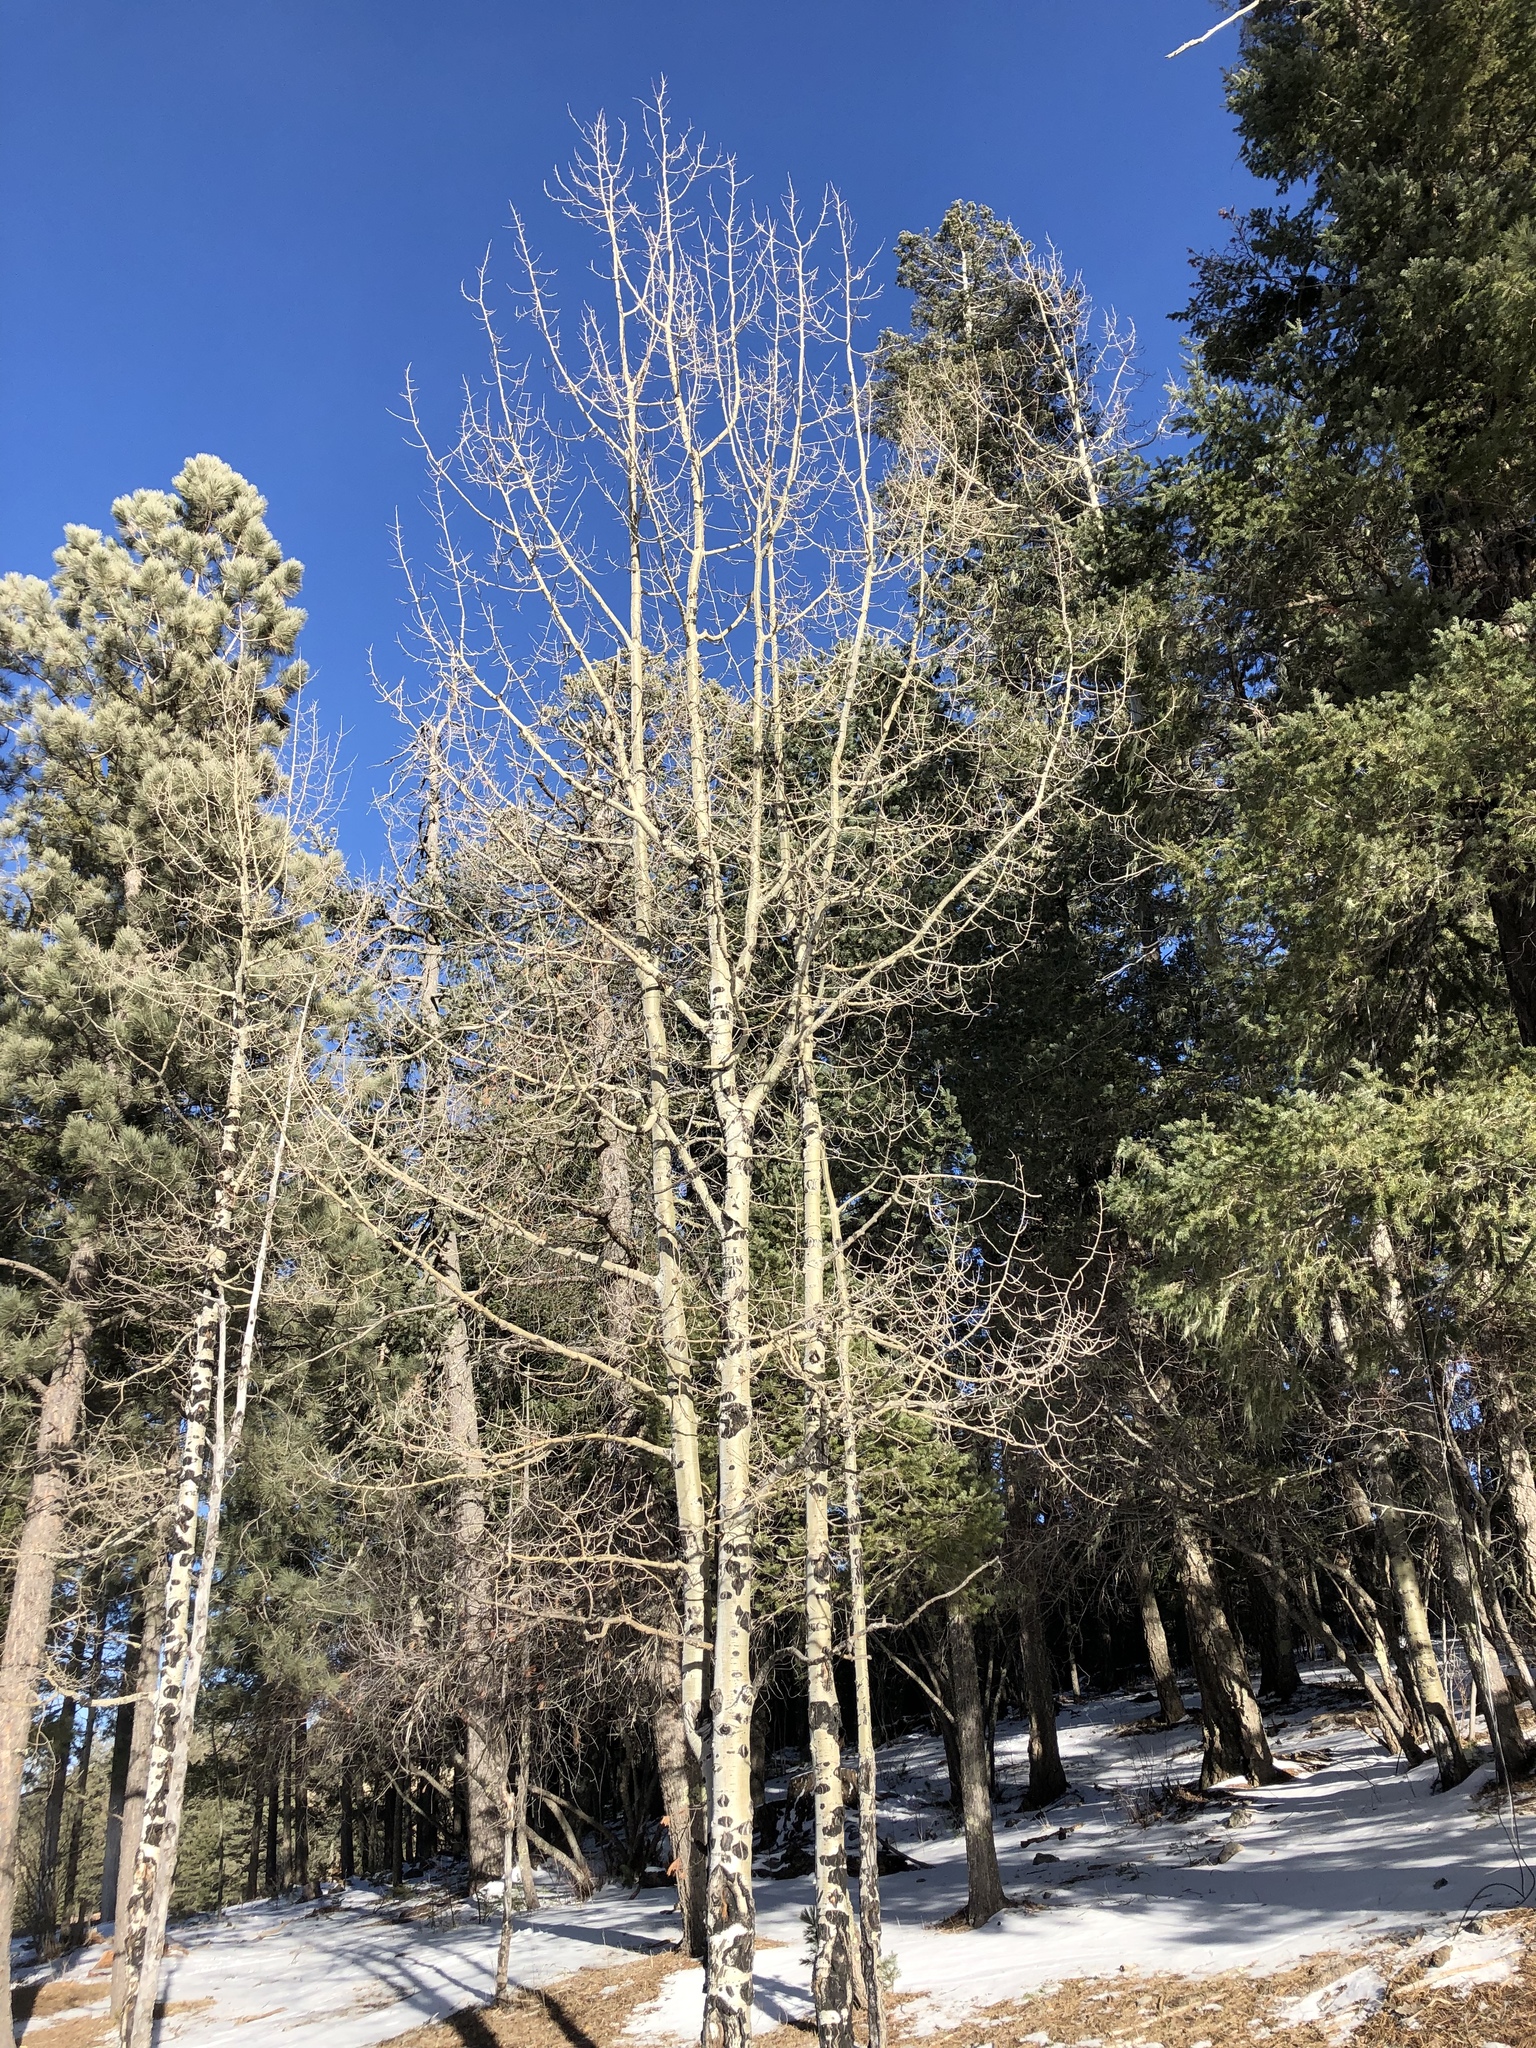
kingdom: Plantae
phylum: Tracheophyta
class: Magnoliopsida
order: Malpighiales
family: Salicaceae
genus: Populus
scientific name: Populus tremuloides
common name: Quaking aspen
